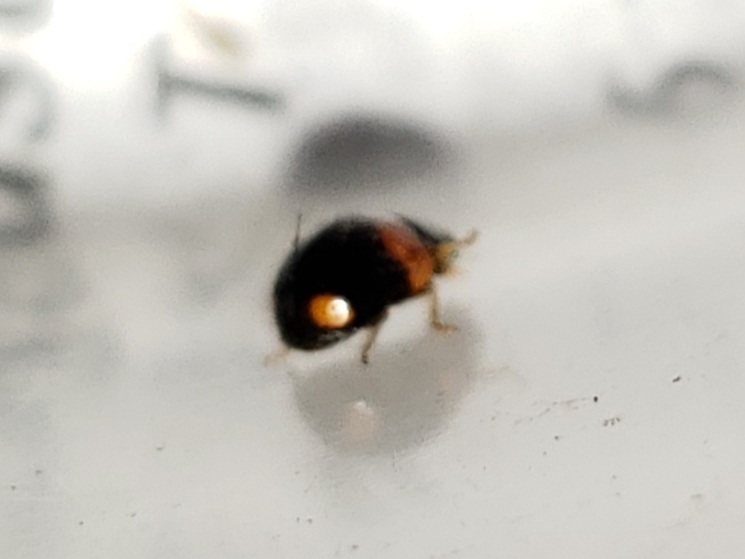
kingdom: Animalia
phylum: Arthropoda
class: Insecta
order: Coleoptera
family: Coccinellidae
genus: Brachiacantha
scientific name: Brachiacantha querceti
